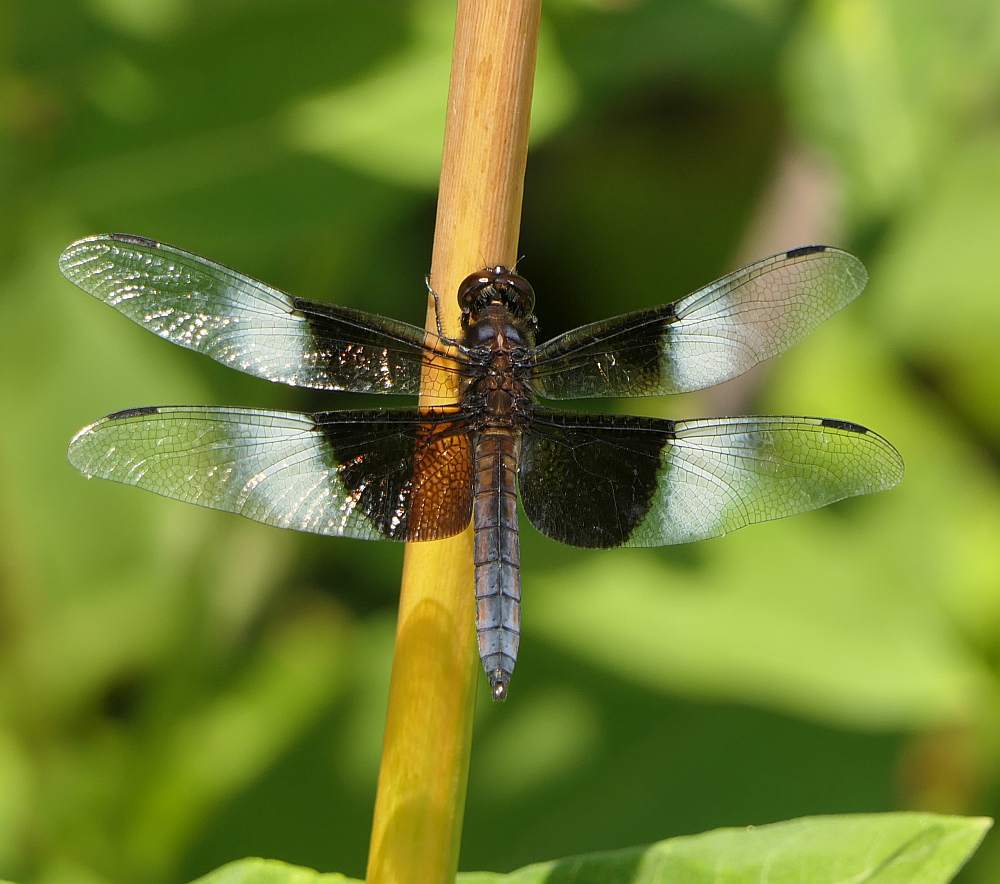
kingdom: Animalia
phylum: Arthropoda
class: Insecta
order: Odonata
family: Libellulidae
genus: Libellula
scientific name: Libellula luctuosa
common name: Widow skimmer
